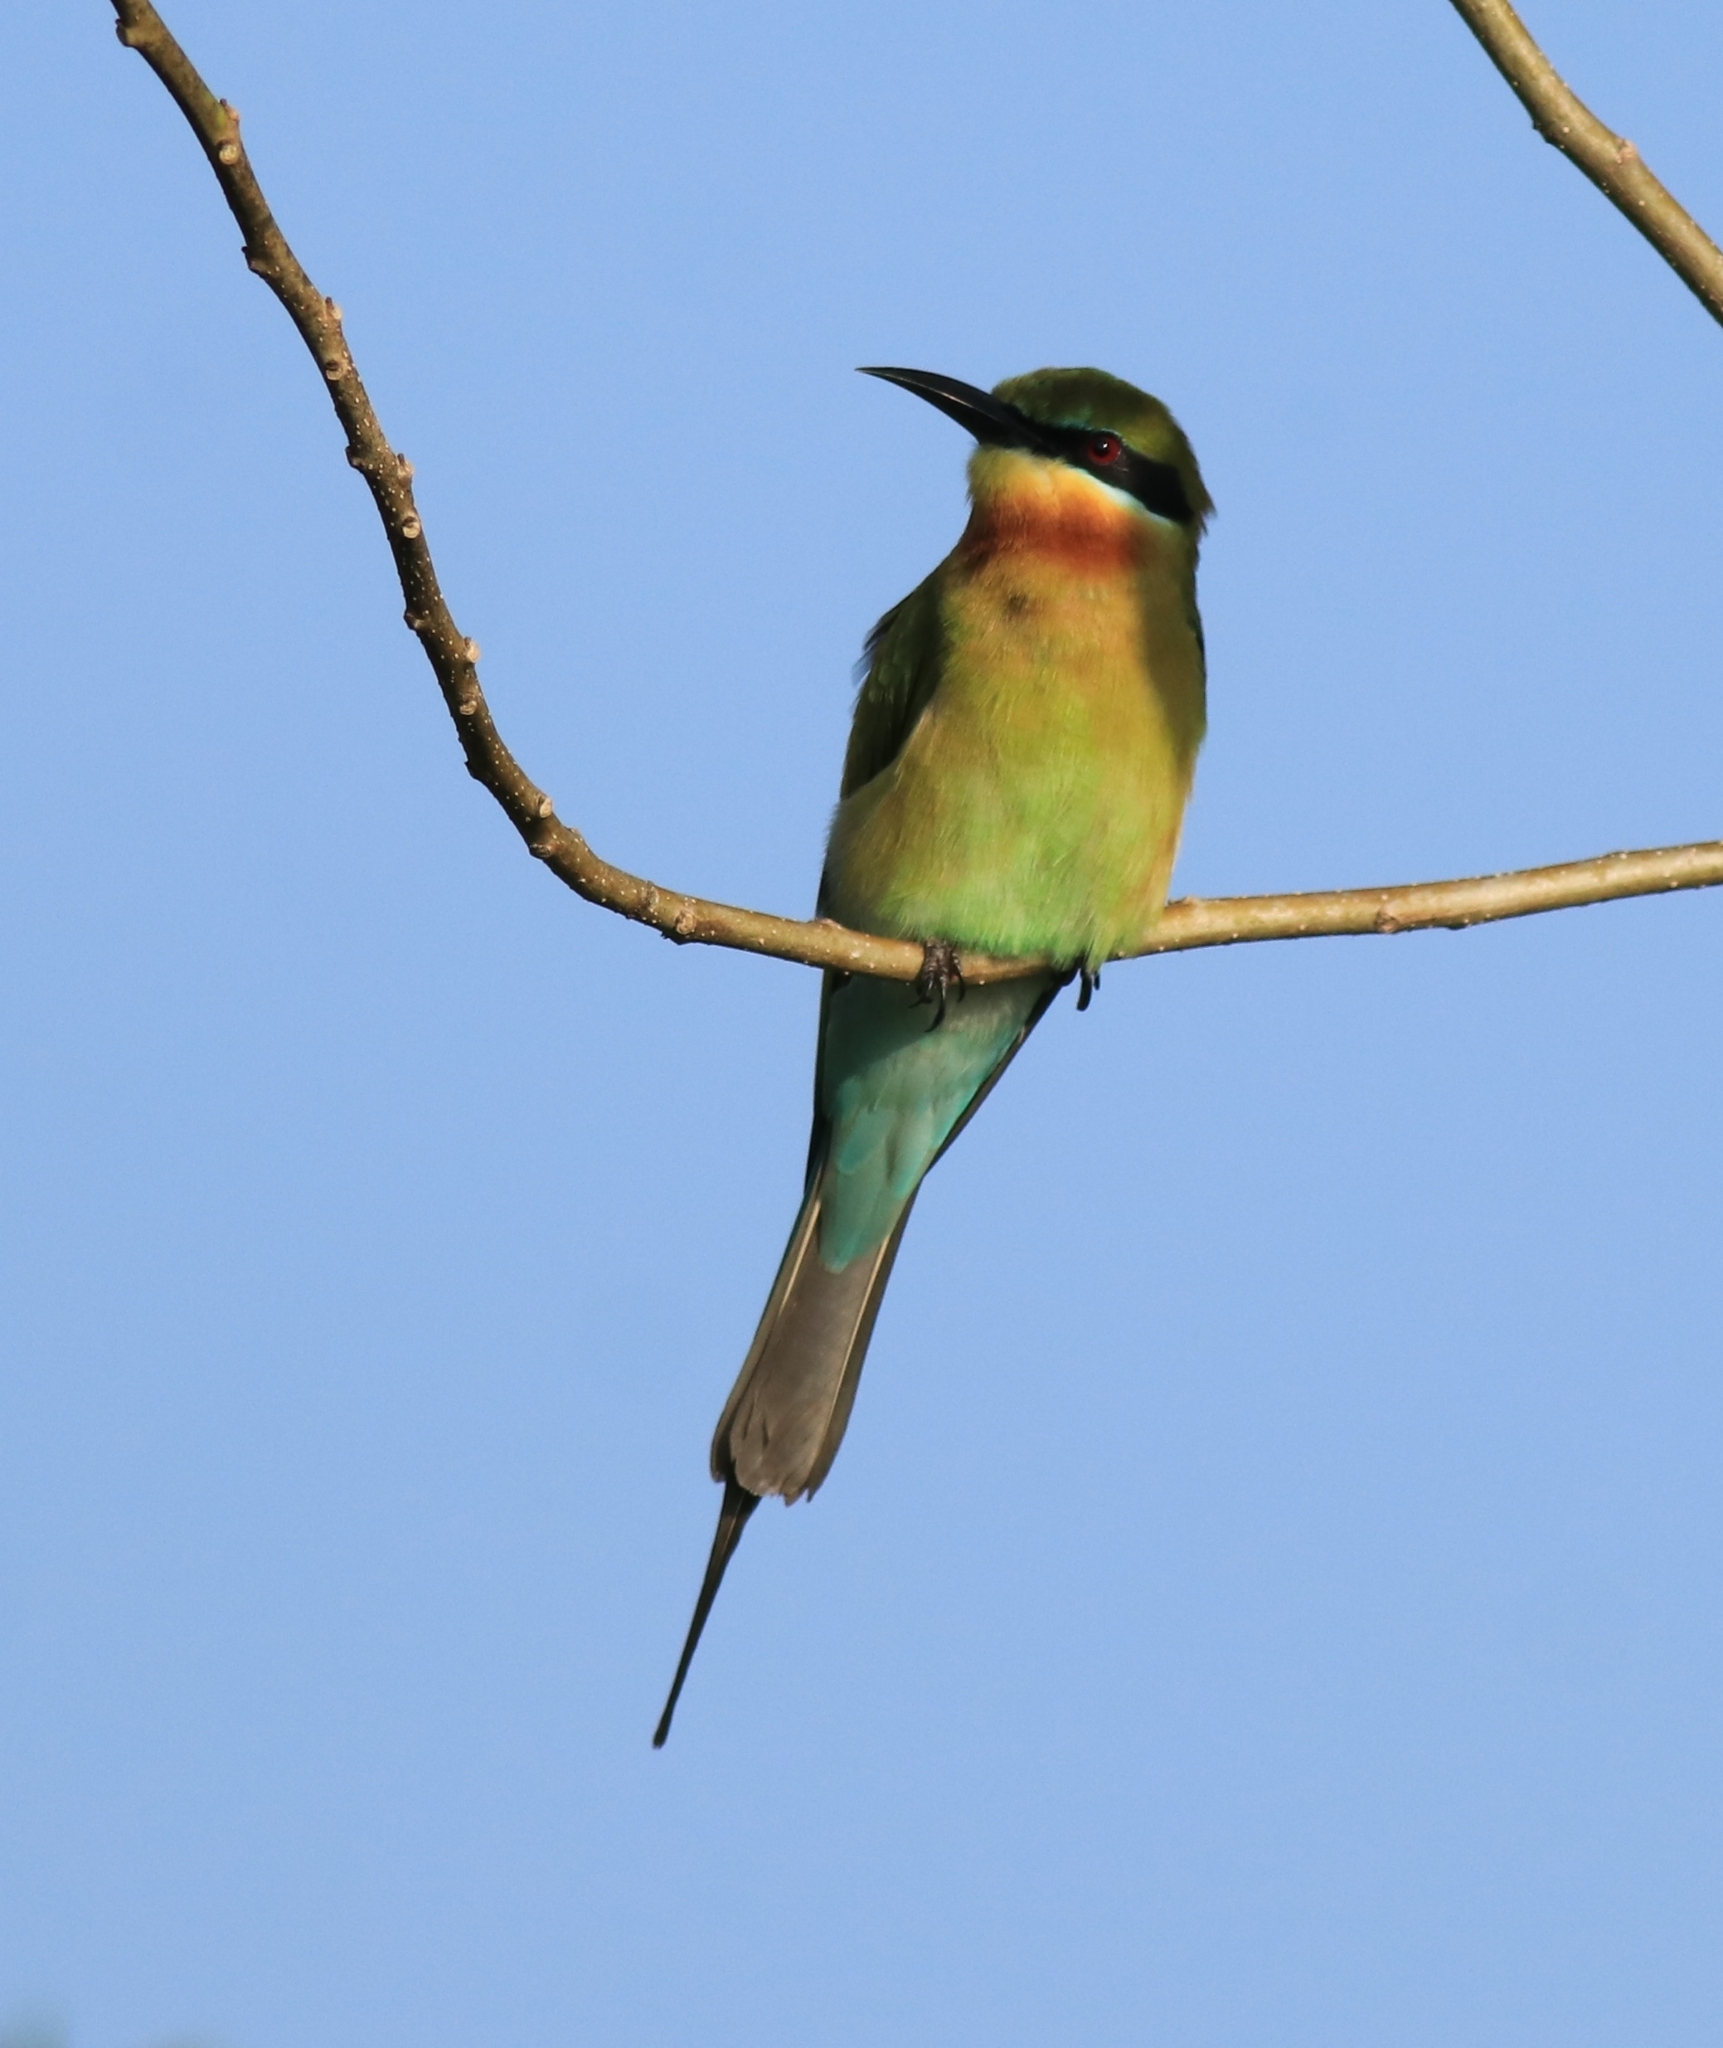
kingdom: Animalia
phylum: Chordata
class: Aves
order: Coraciiformes
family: Meropidae
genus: Merops
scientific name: Merops philippinus
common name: Blue-tailed bee-eater
